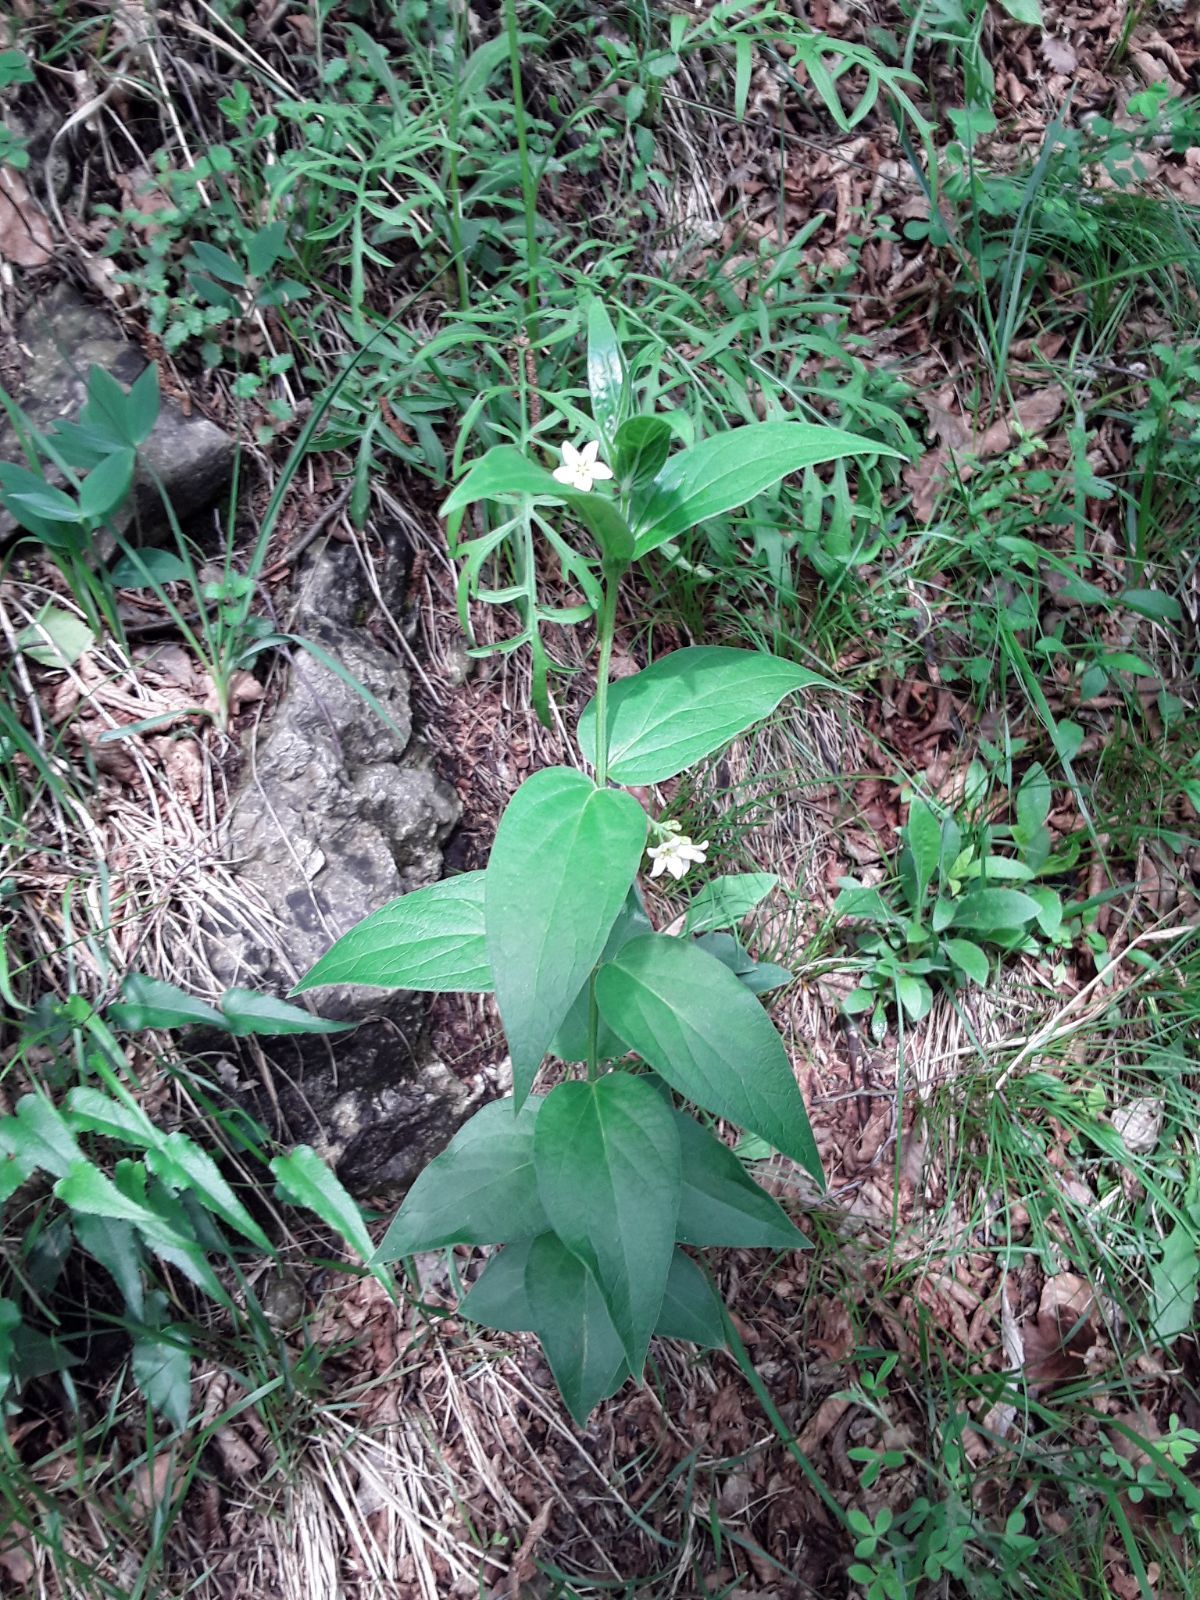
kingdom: Plantae
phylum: Tracheophyta
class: Magnoliopsida
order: Gentianales
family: Apocynaceae
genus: Vincetoxicum
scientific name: Vincetoxicum hirundinaria
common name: White swallowwort
